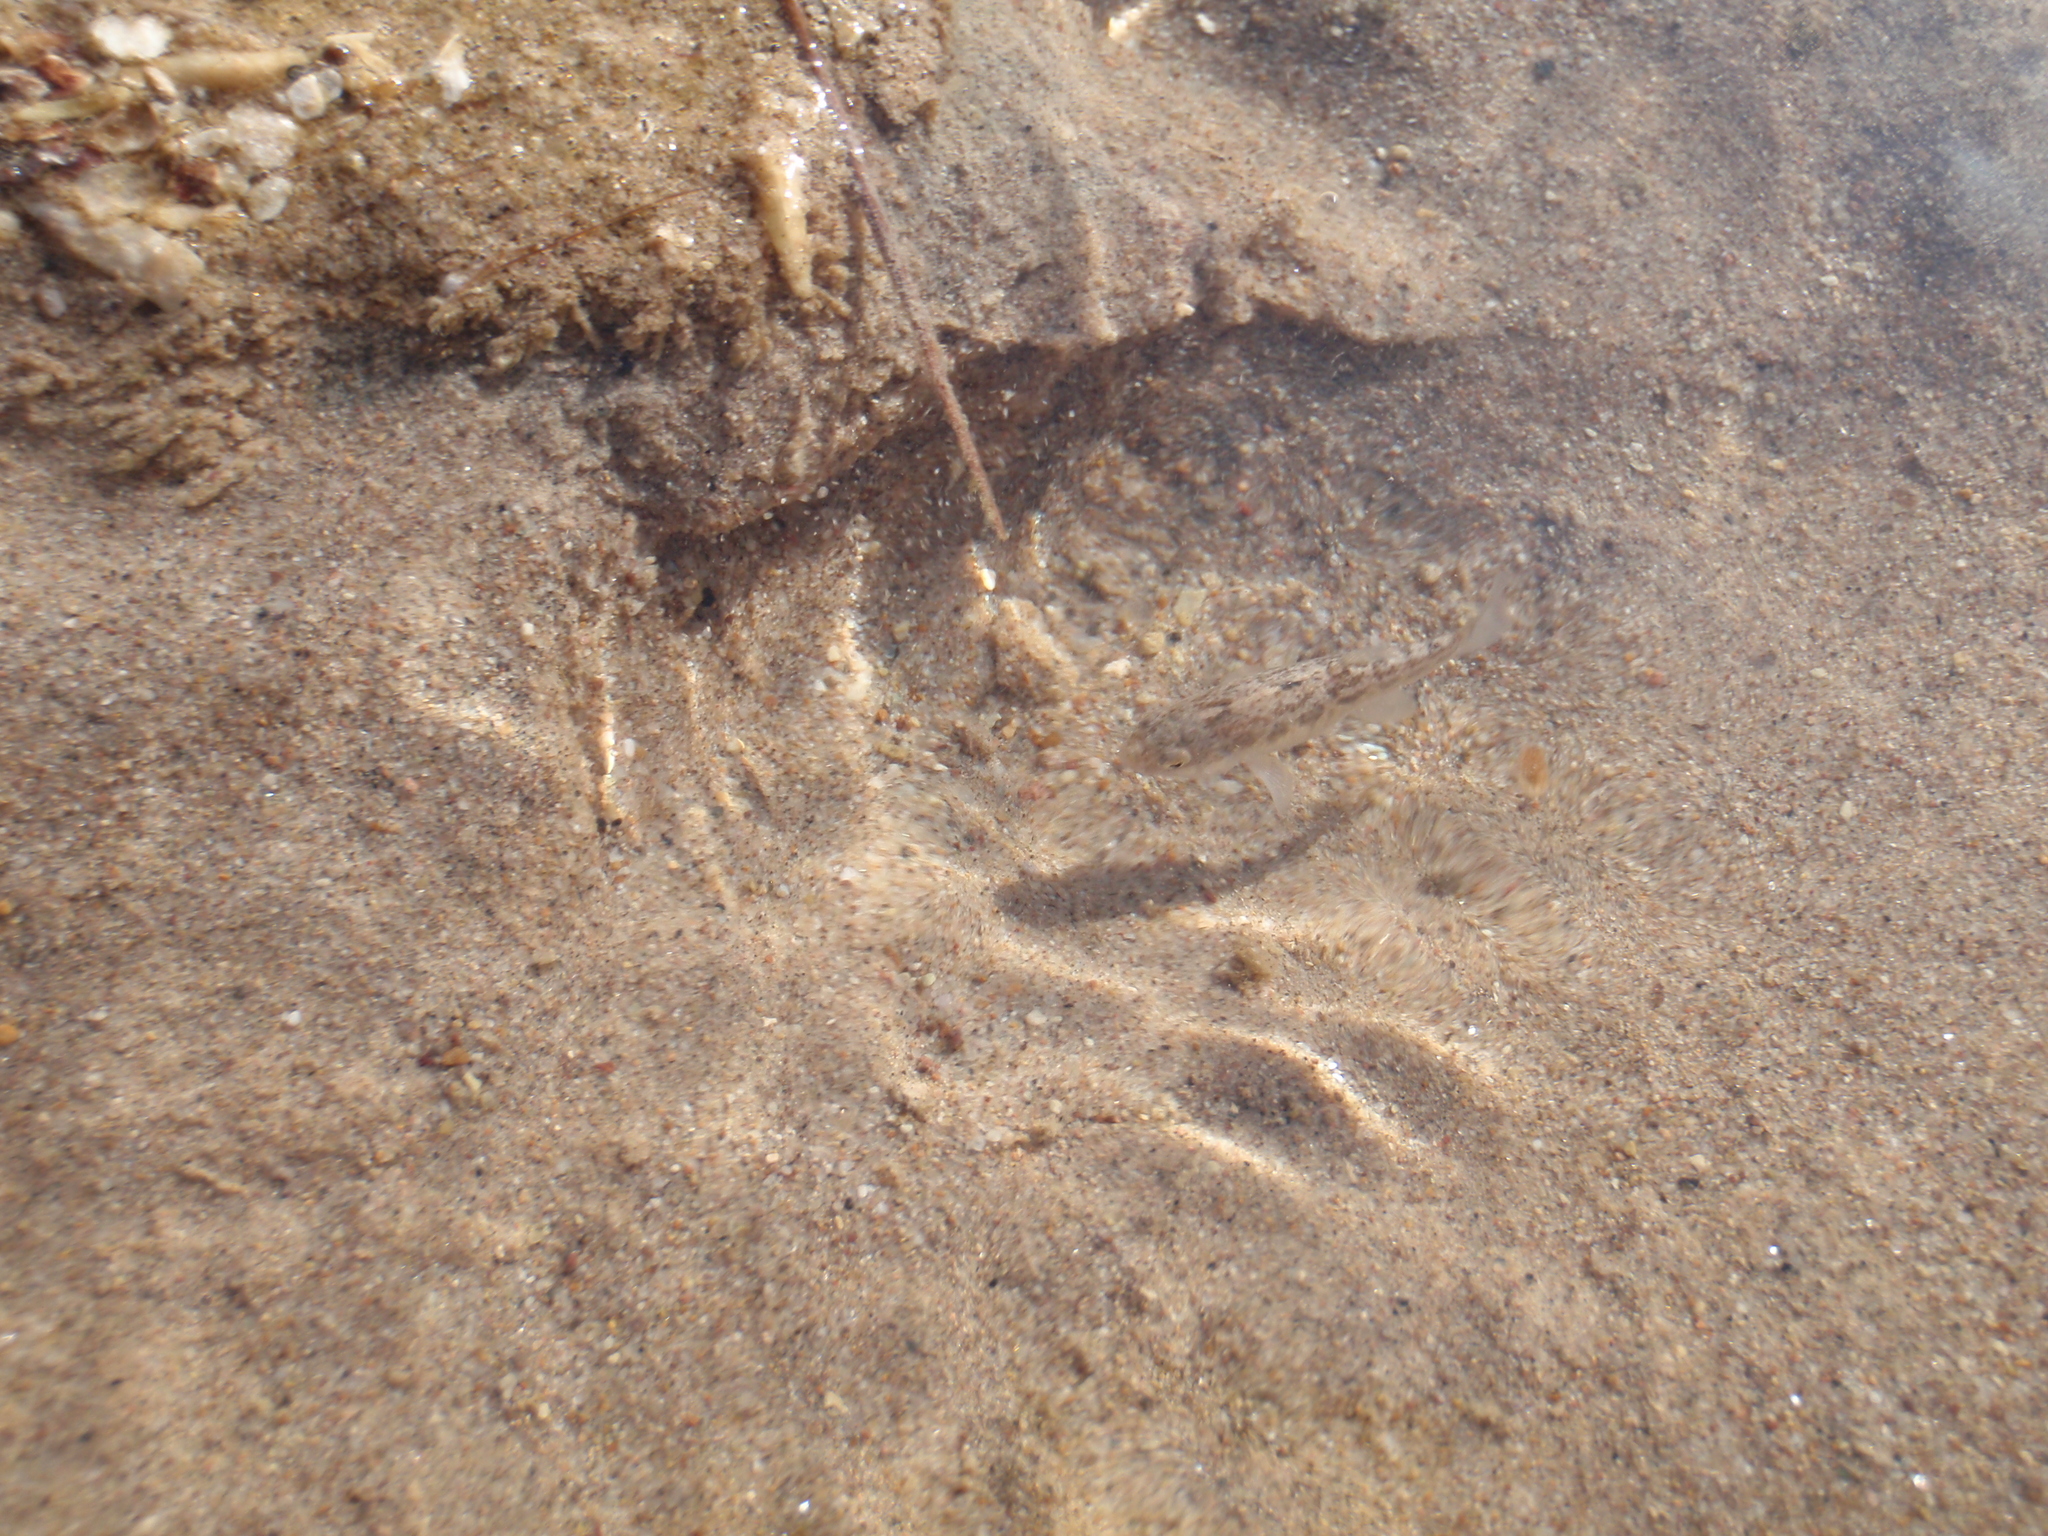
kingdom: Animalia
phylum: Chordata
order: Cyprinodontiformes
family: Cyprinodontidae
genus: Cyprinodon
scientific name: Cyprinodon salinus
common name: Cottonball marsh pupfish
